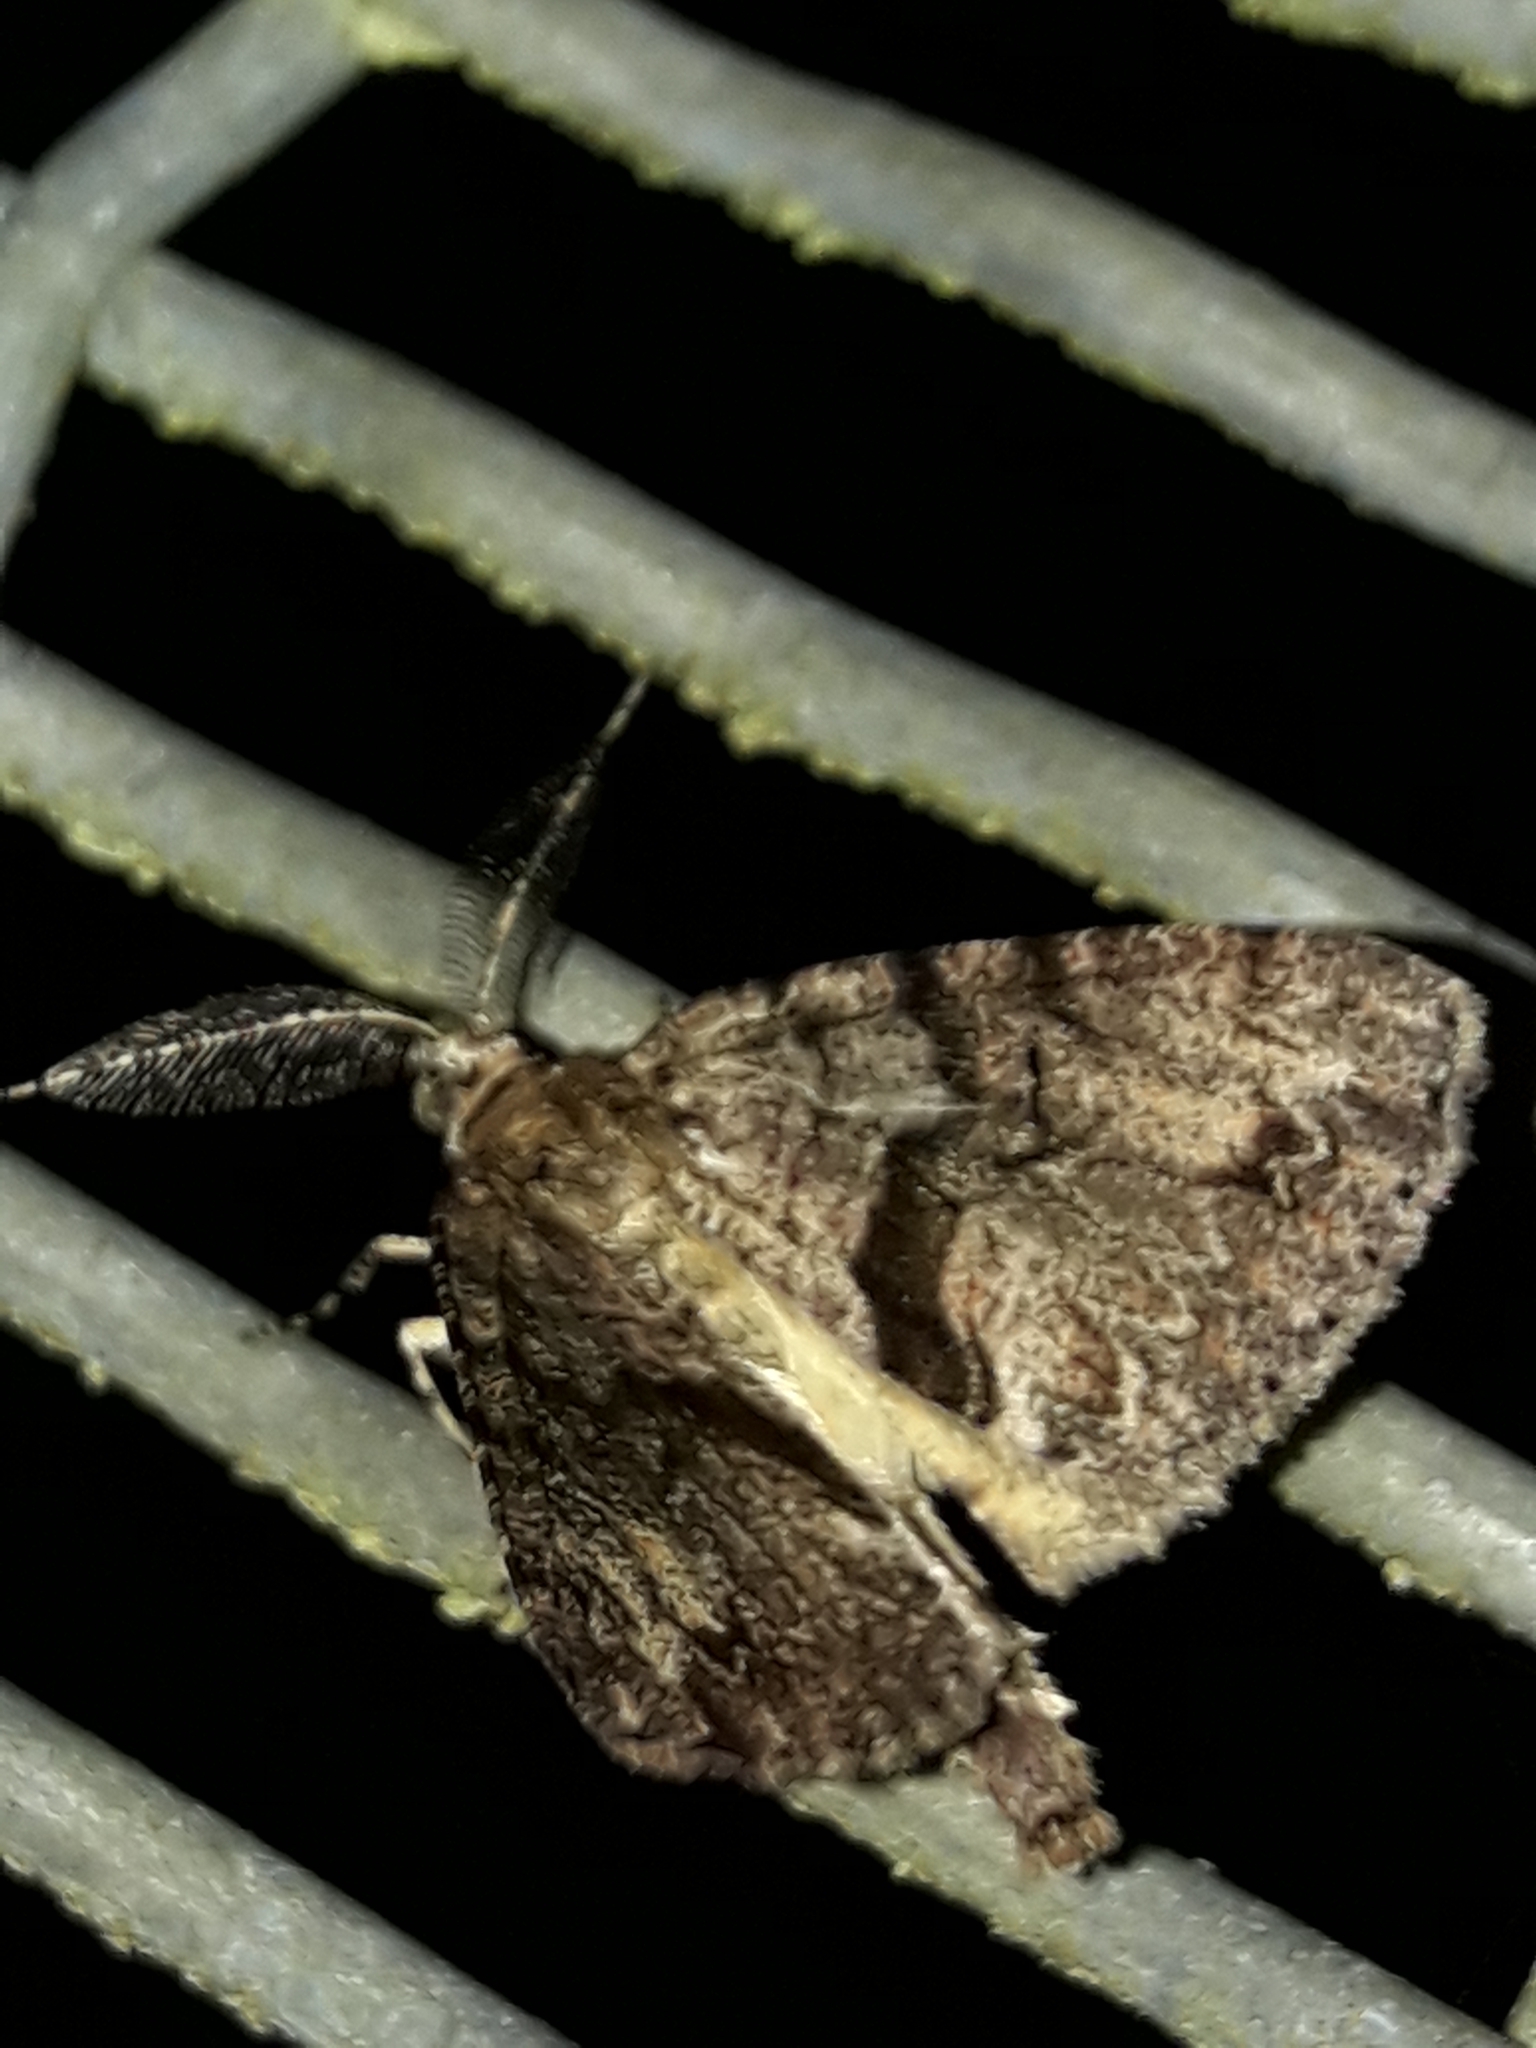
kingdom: Animalia
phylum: Arthropoda
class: Insecta
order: Lepidoptera
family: Geometridae
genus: Pseudocoremia
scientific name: Pseudocoremia suavis
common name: Common forest looper
